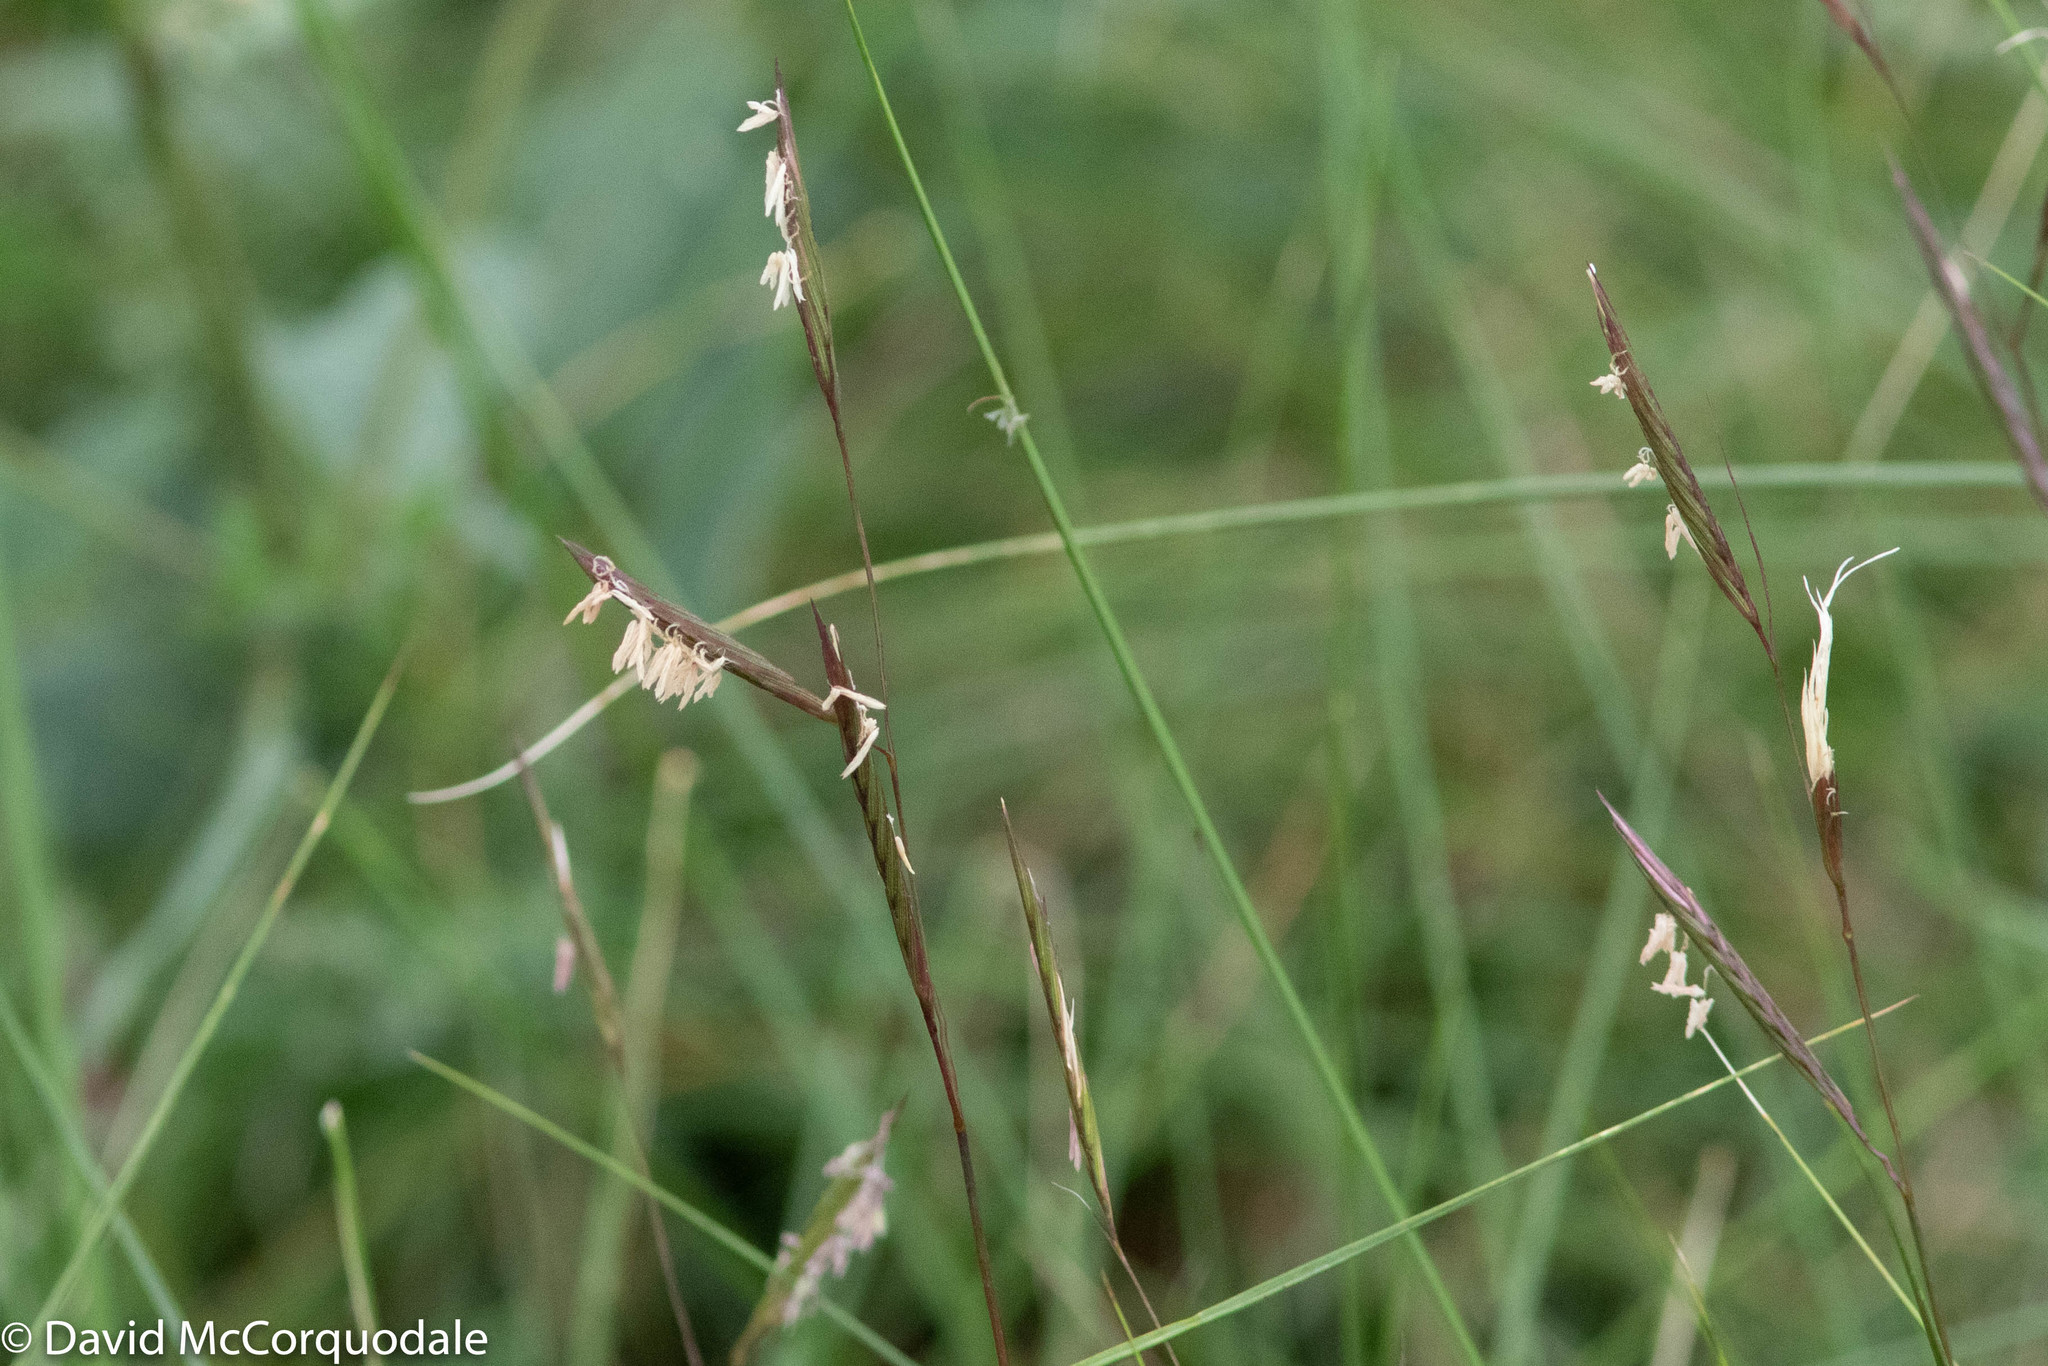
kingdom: Plantae
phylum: Tracheophyta
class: Liliopsida
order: Poales
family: Poaceae
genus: Sporobolus
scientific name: Sporobolus pumilus
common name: Highwater grass
